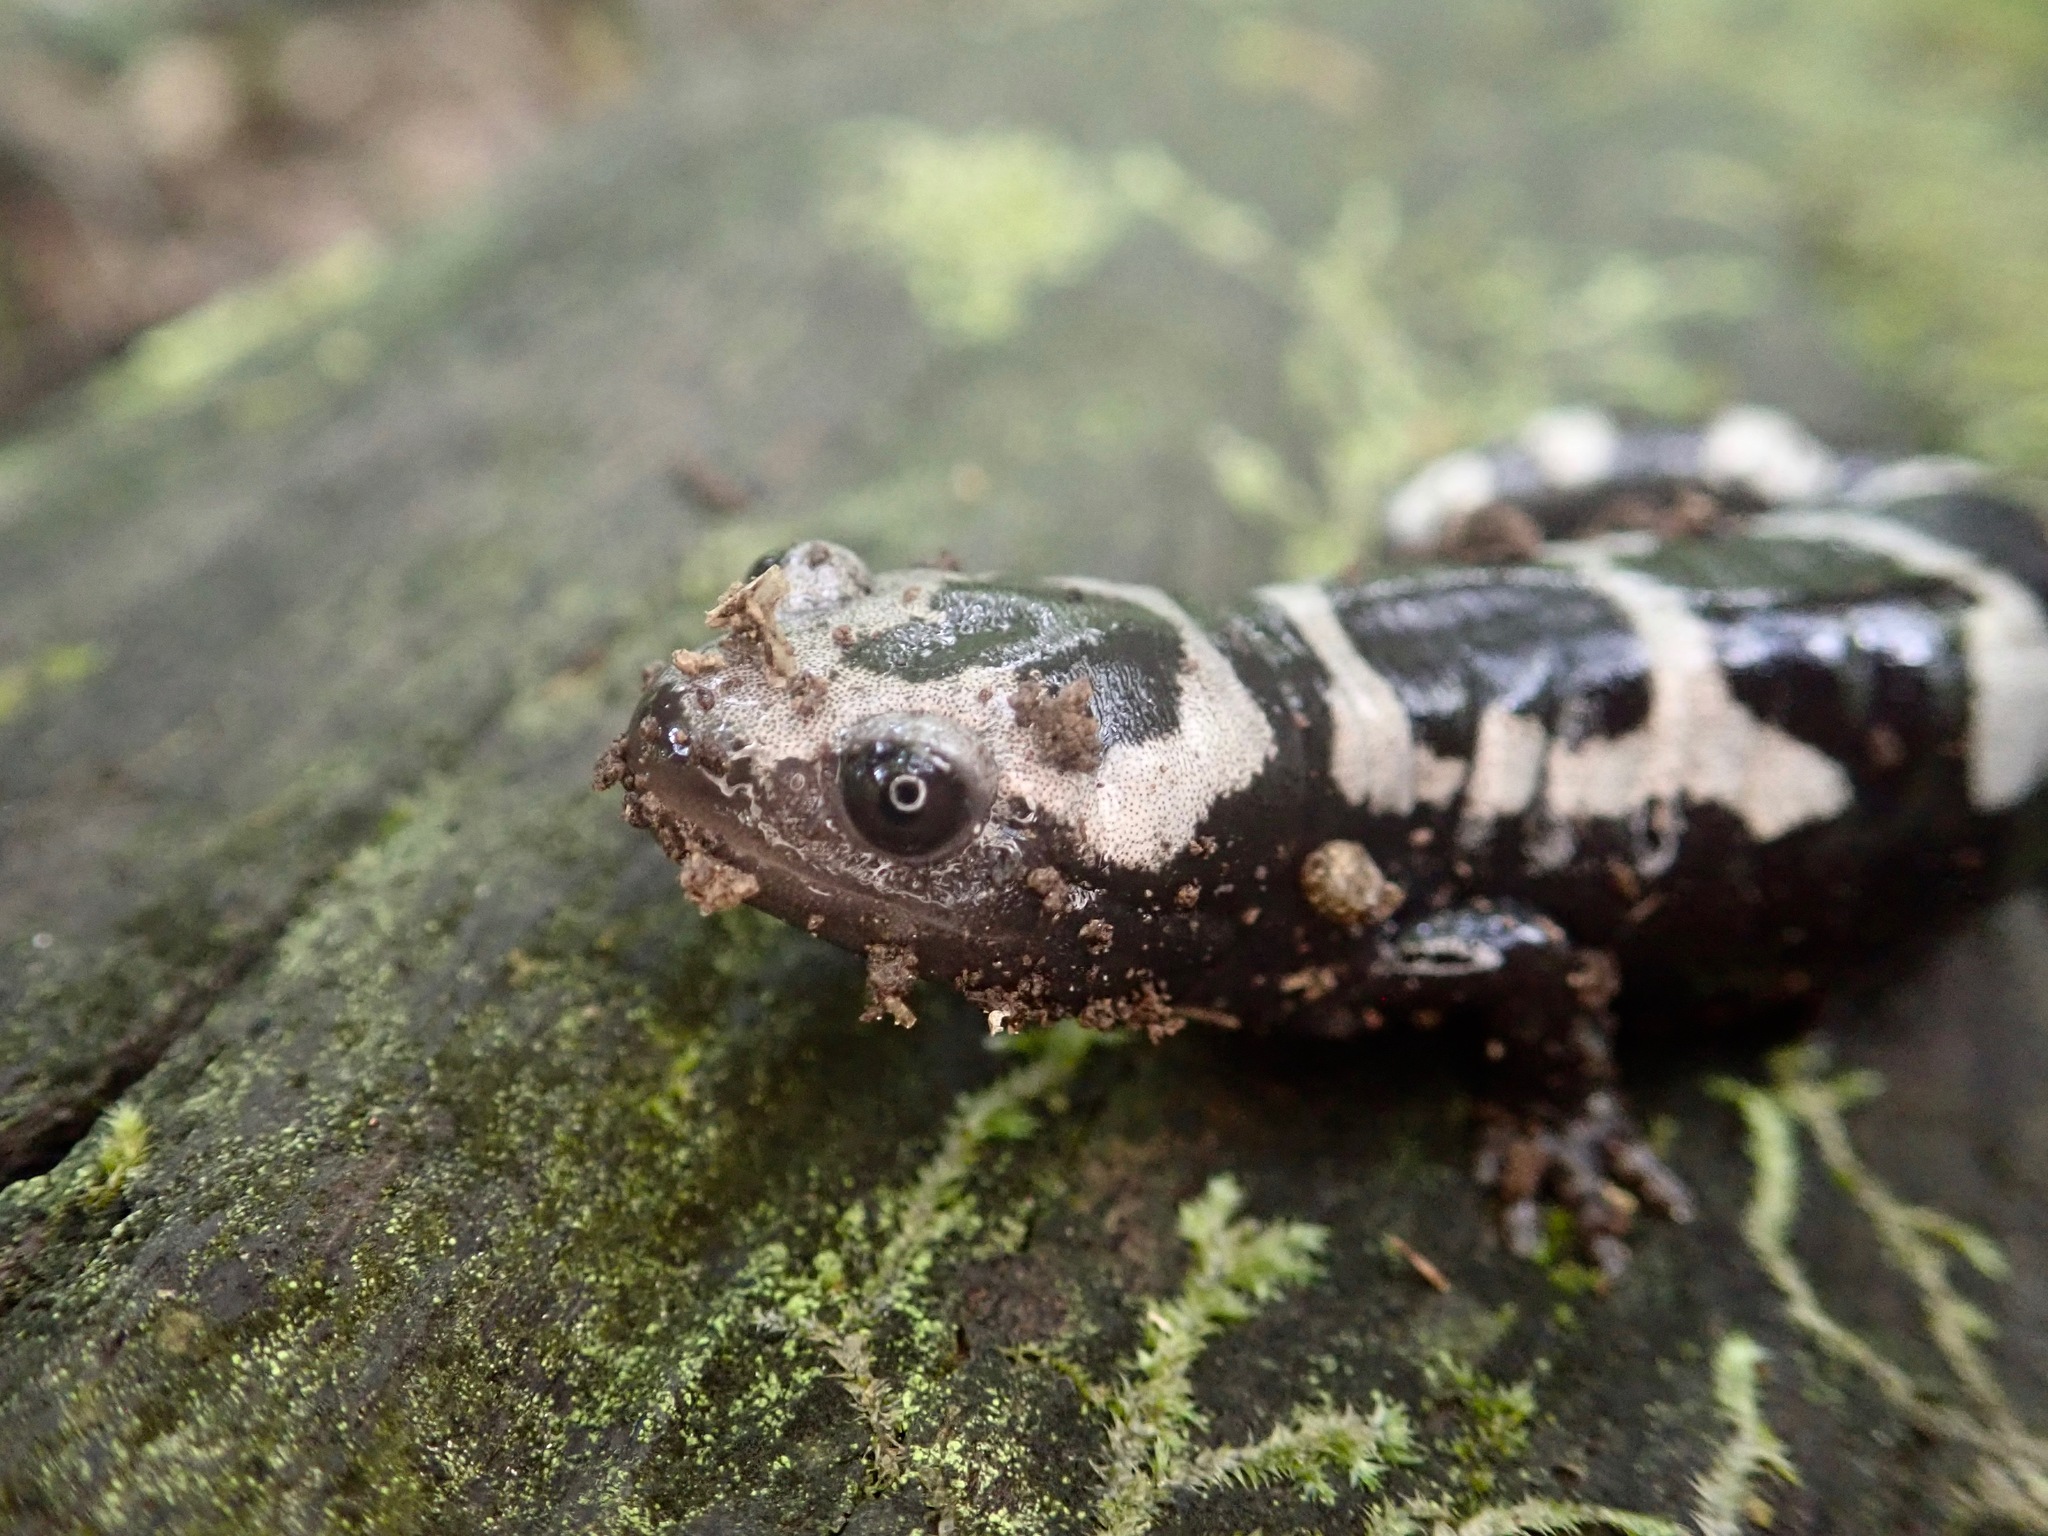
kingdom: Animalia
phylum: Chordata
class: Amphibia
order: Caudata
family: Ambystomatidae
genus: Ambystoma
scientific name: Ambystoma opacum
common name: Marbled salamander
